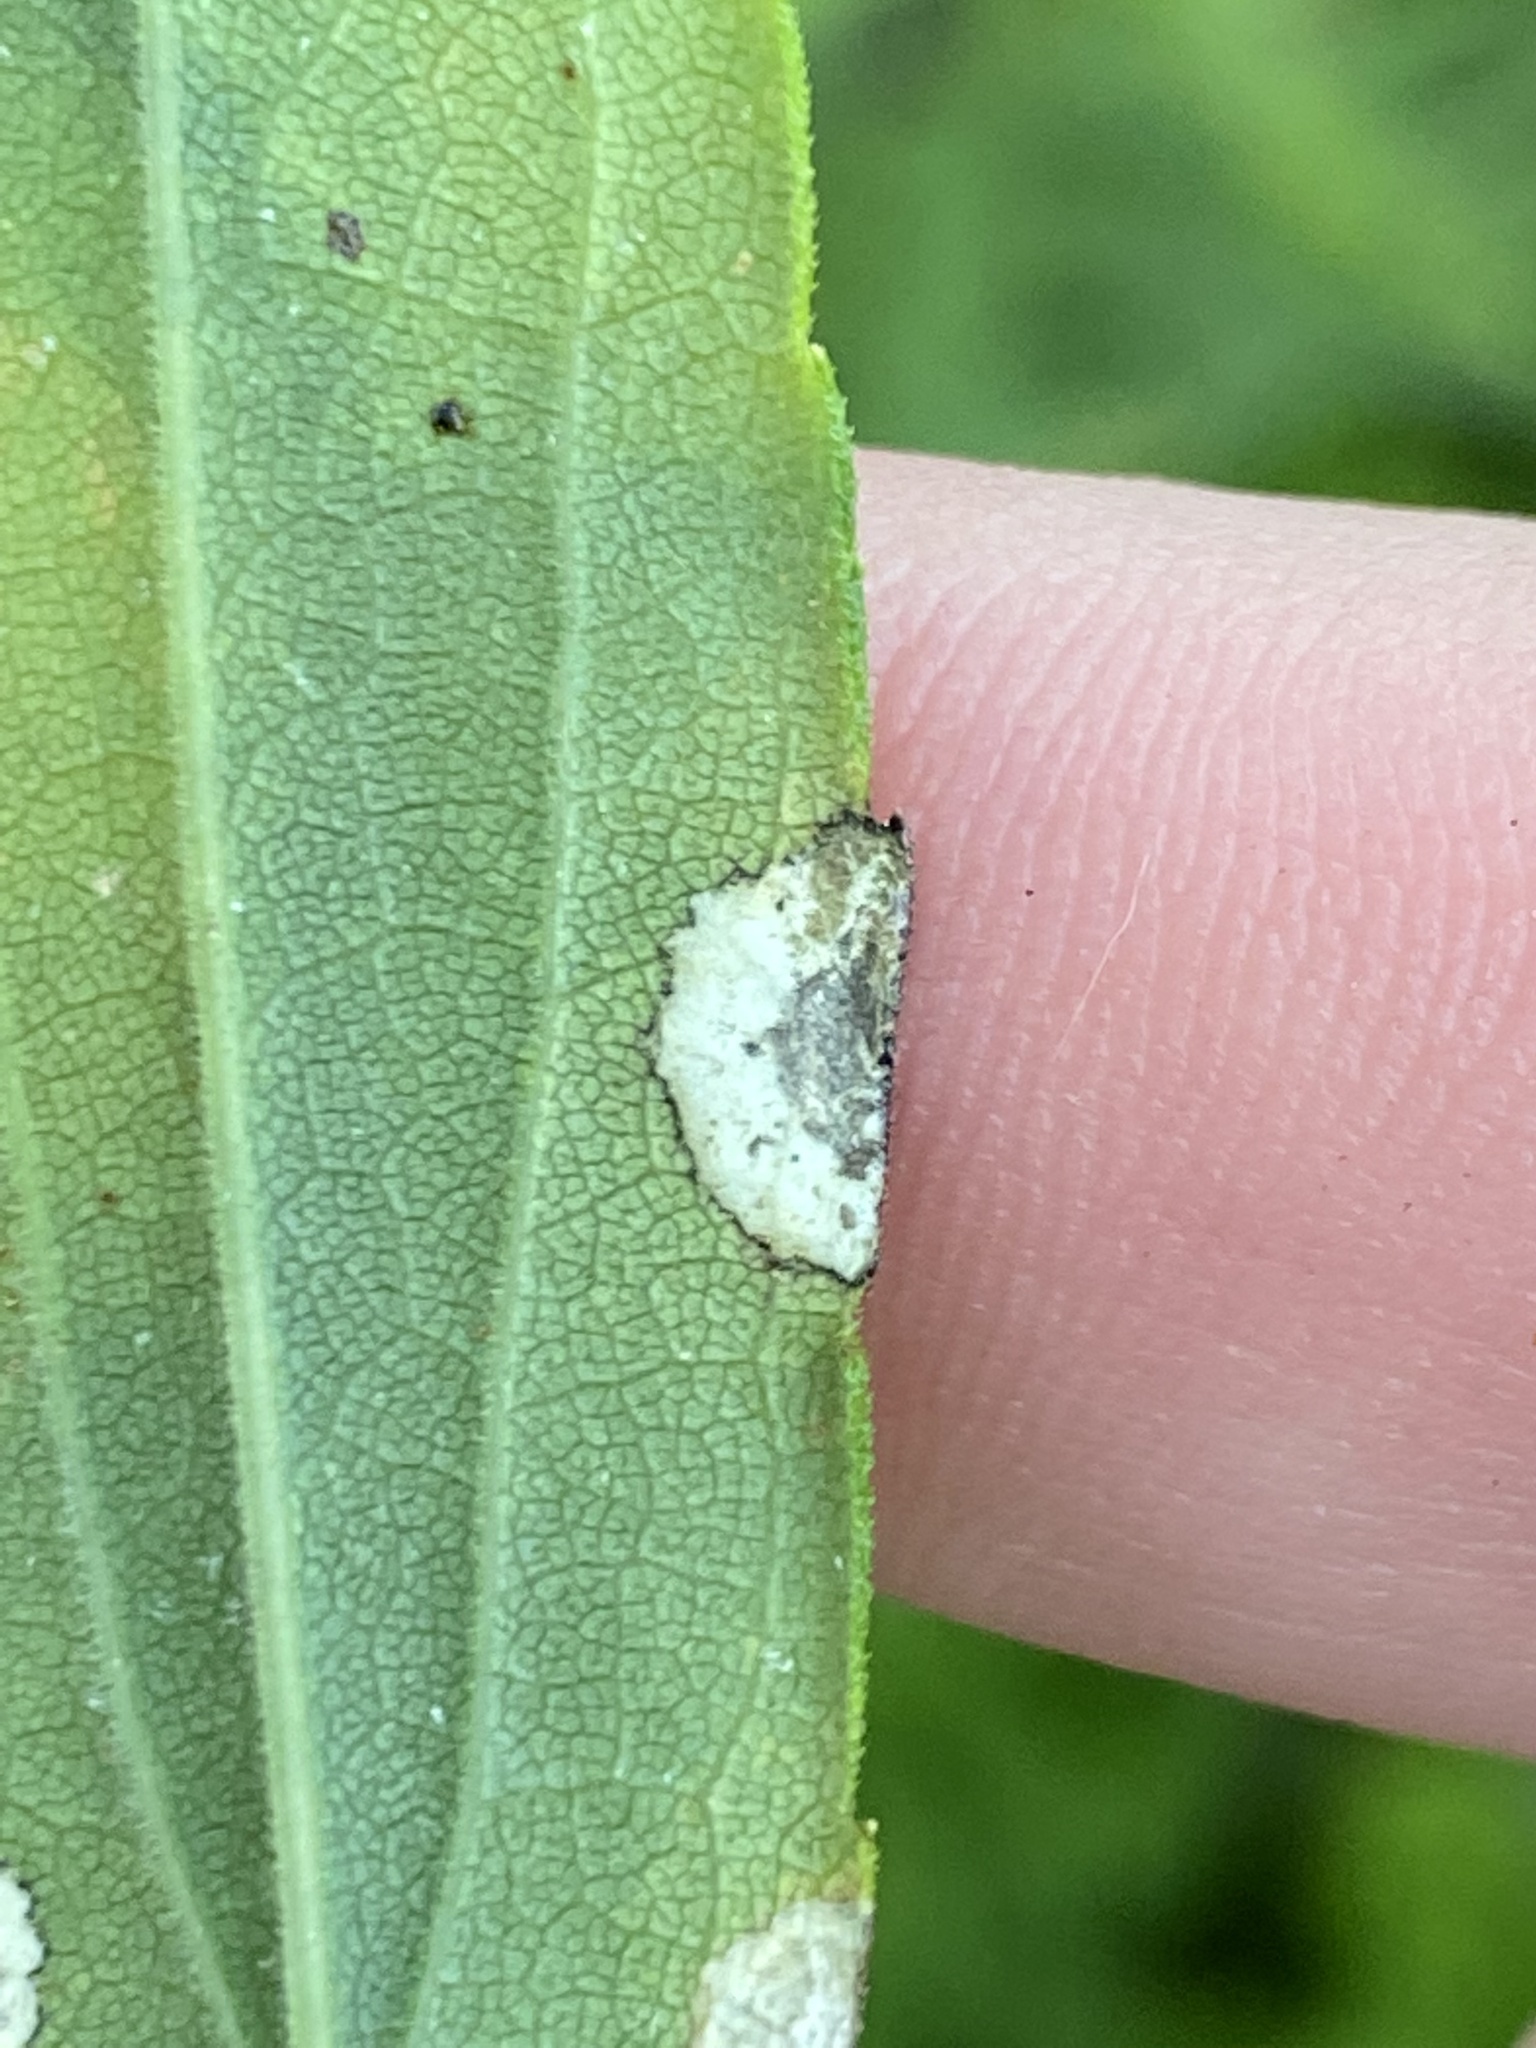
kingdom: Animalia
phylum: Arthropoda
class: Insecta
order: Diptera
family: Cecidomyiidae
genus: Asteromyia
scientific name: Asteromyia carbonifera
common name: Carbonifera goldenrod gall midge
